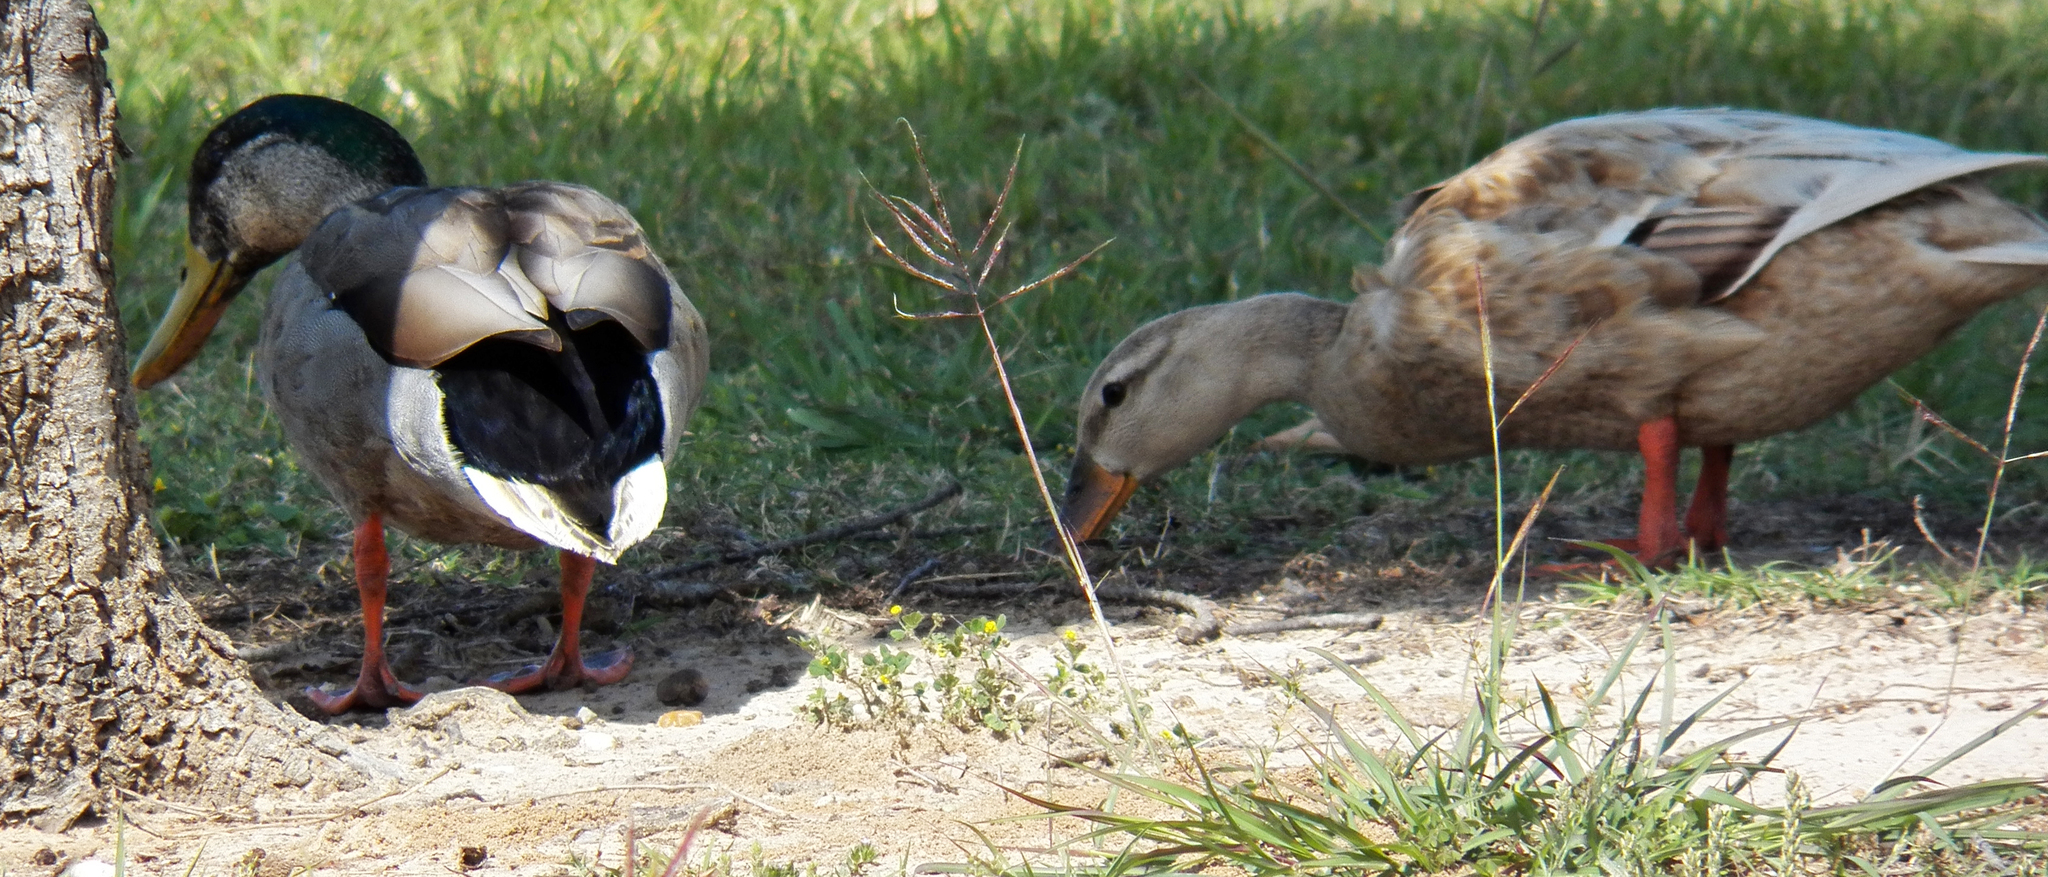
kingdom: Animalia
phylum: Chordata
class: Aves
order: Anseriformes
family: Anatidae
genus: Anas
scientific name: Anas platyrhynchos
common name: Mallard
